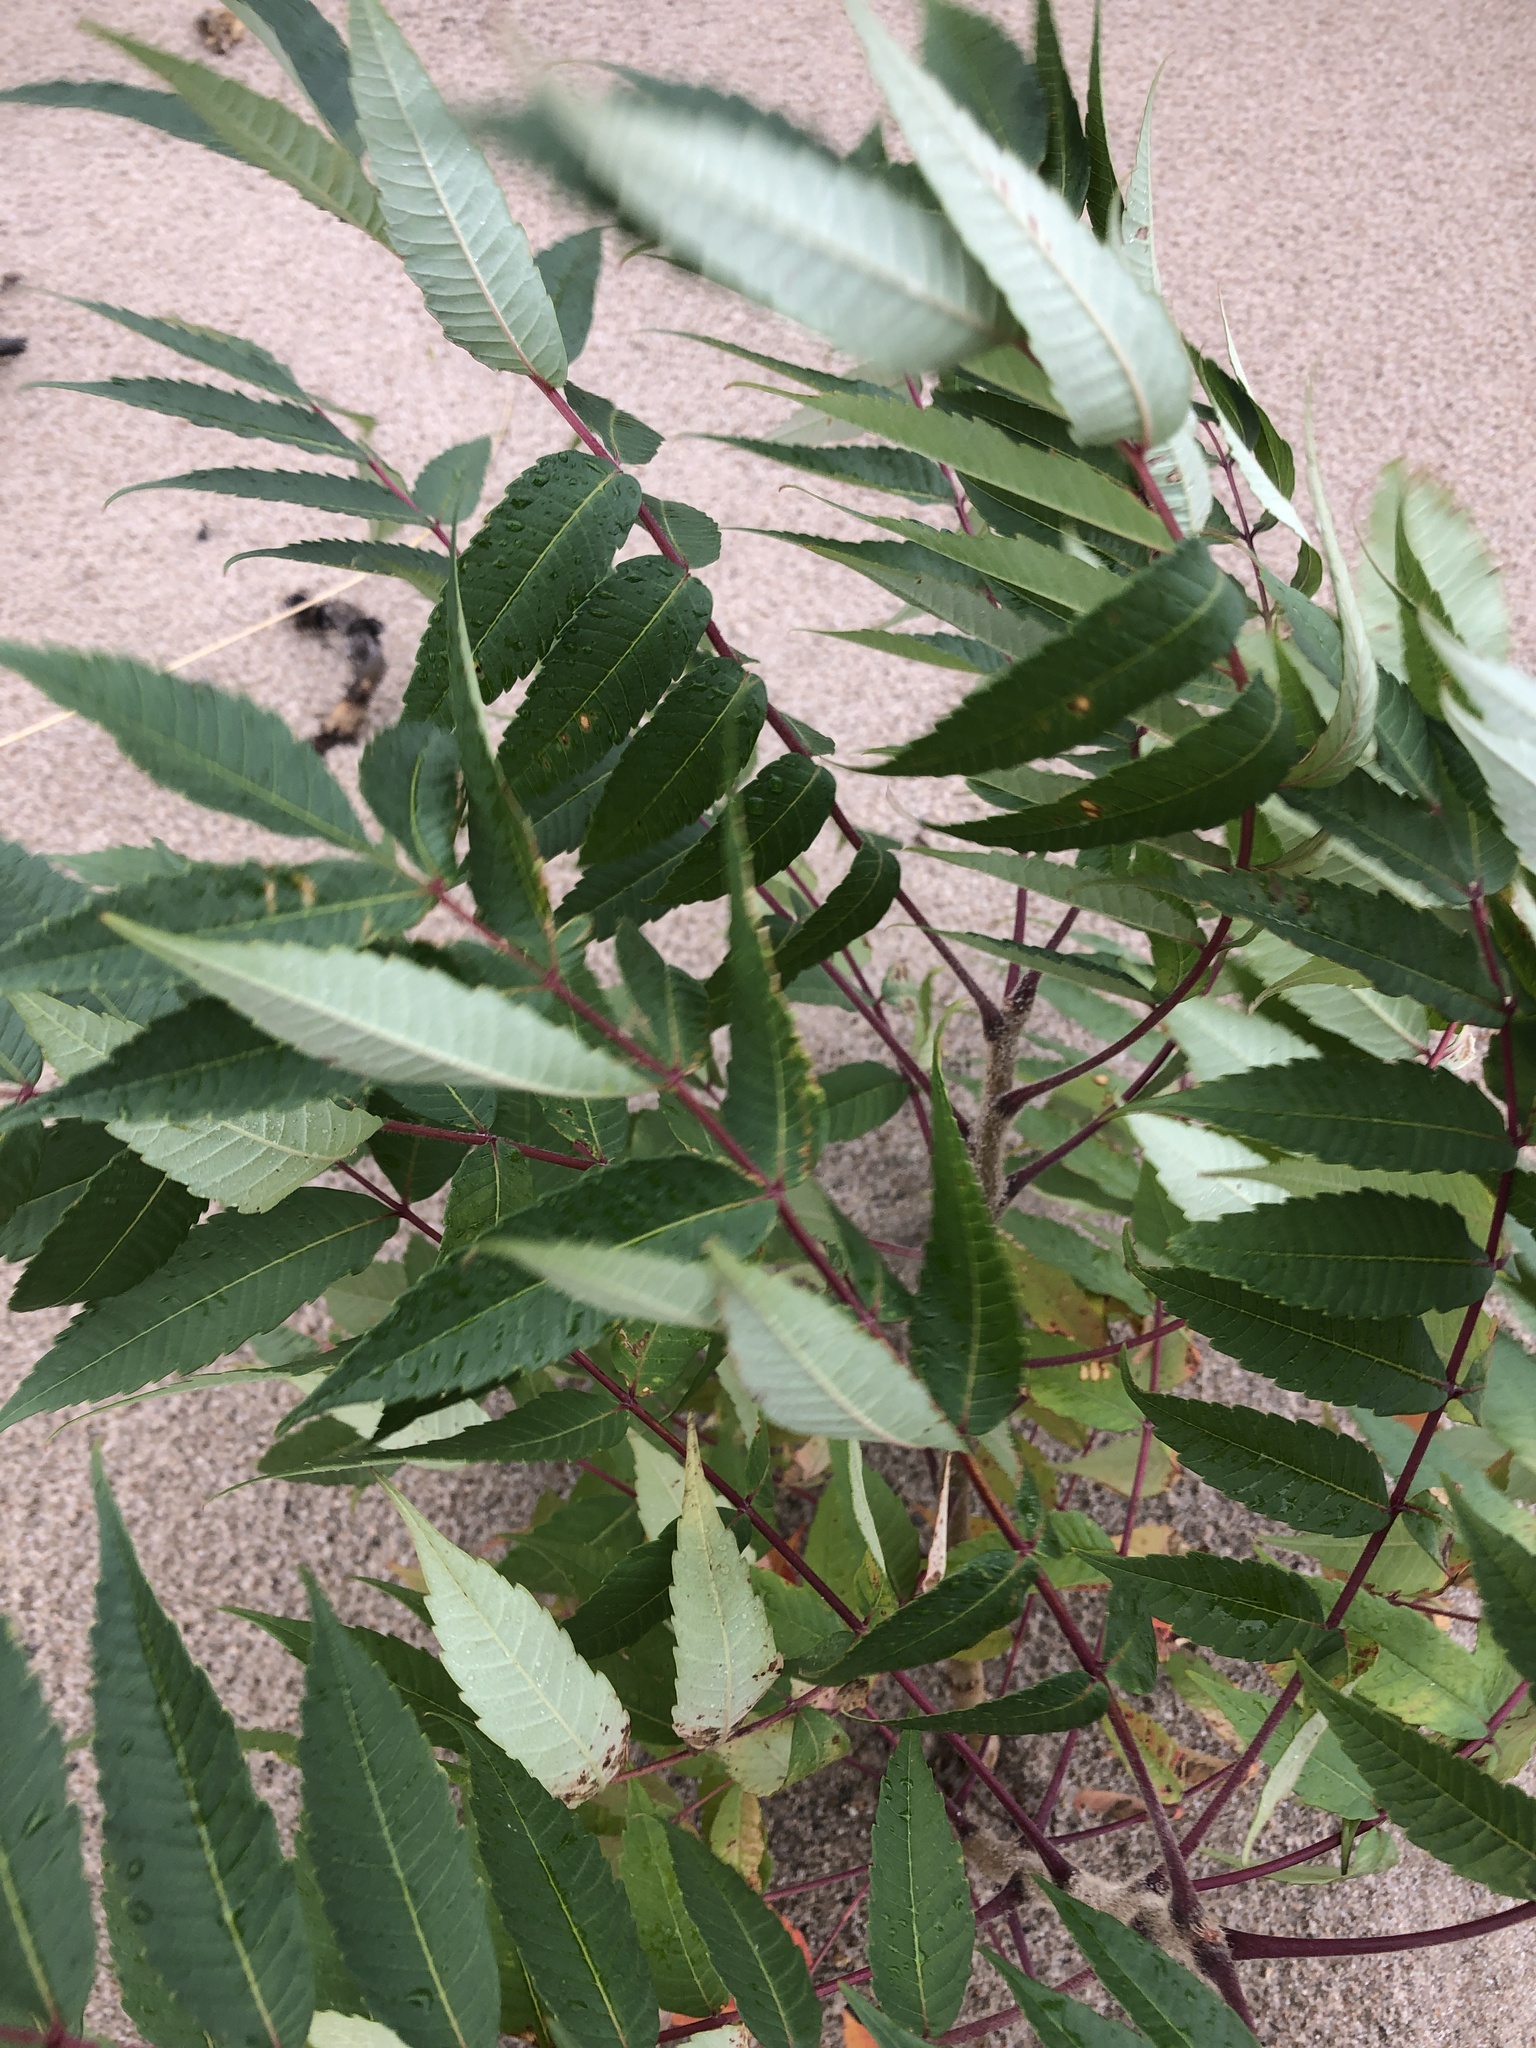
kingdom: Plantae
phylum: Tracheophyta
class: Magnoliopsida
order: Sapindales
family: Anacardiaceae
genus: Rhus
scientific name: Rhus typhina
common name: Staghorn sumac
